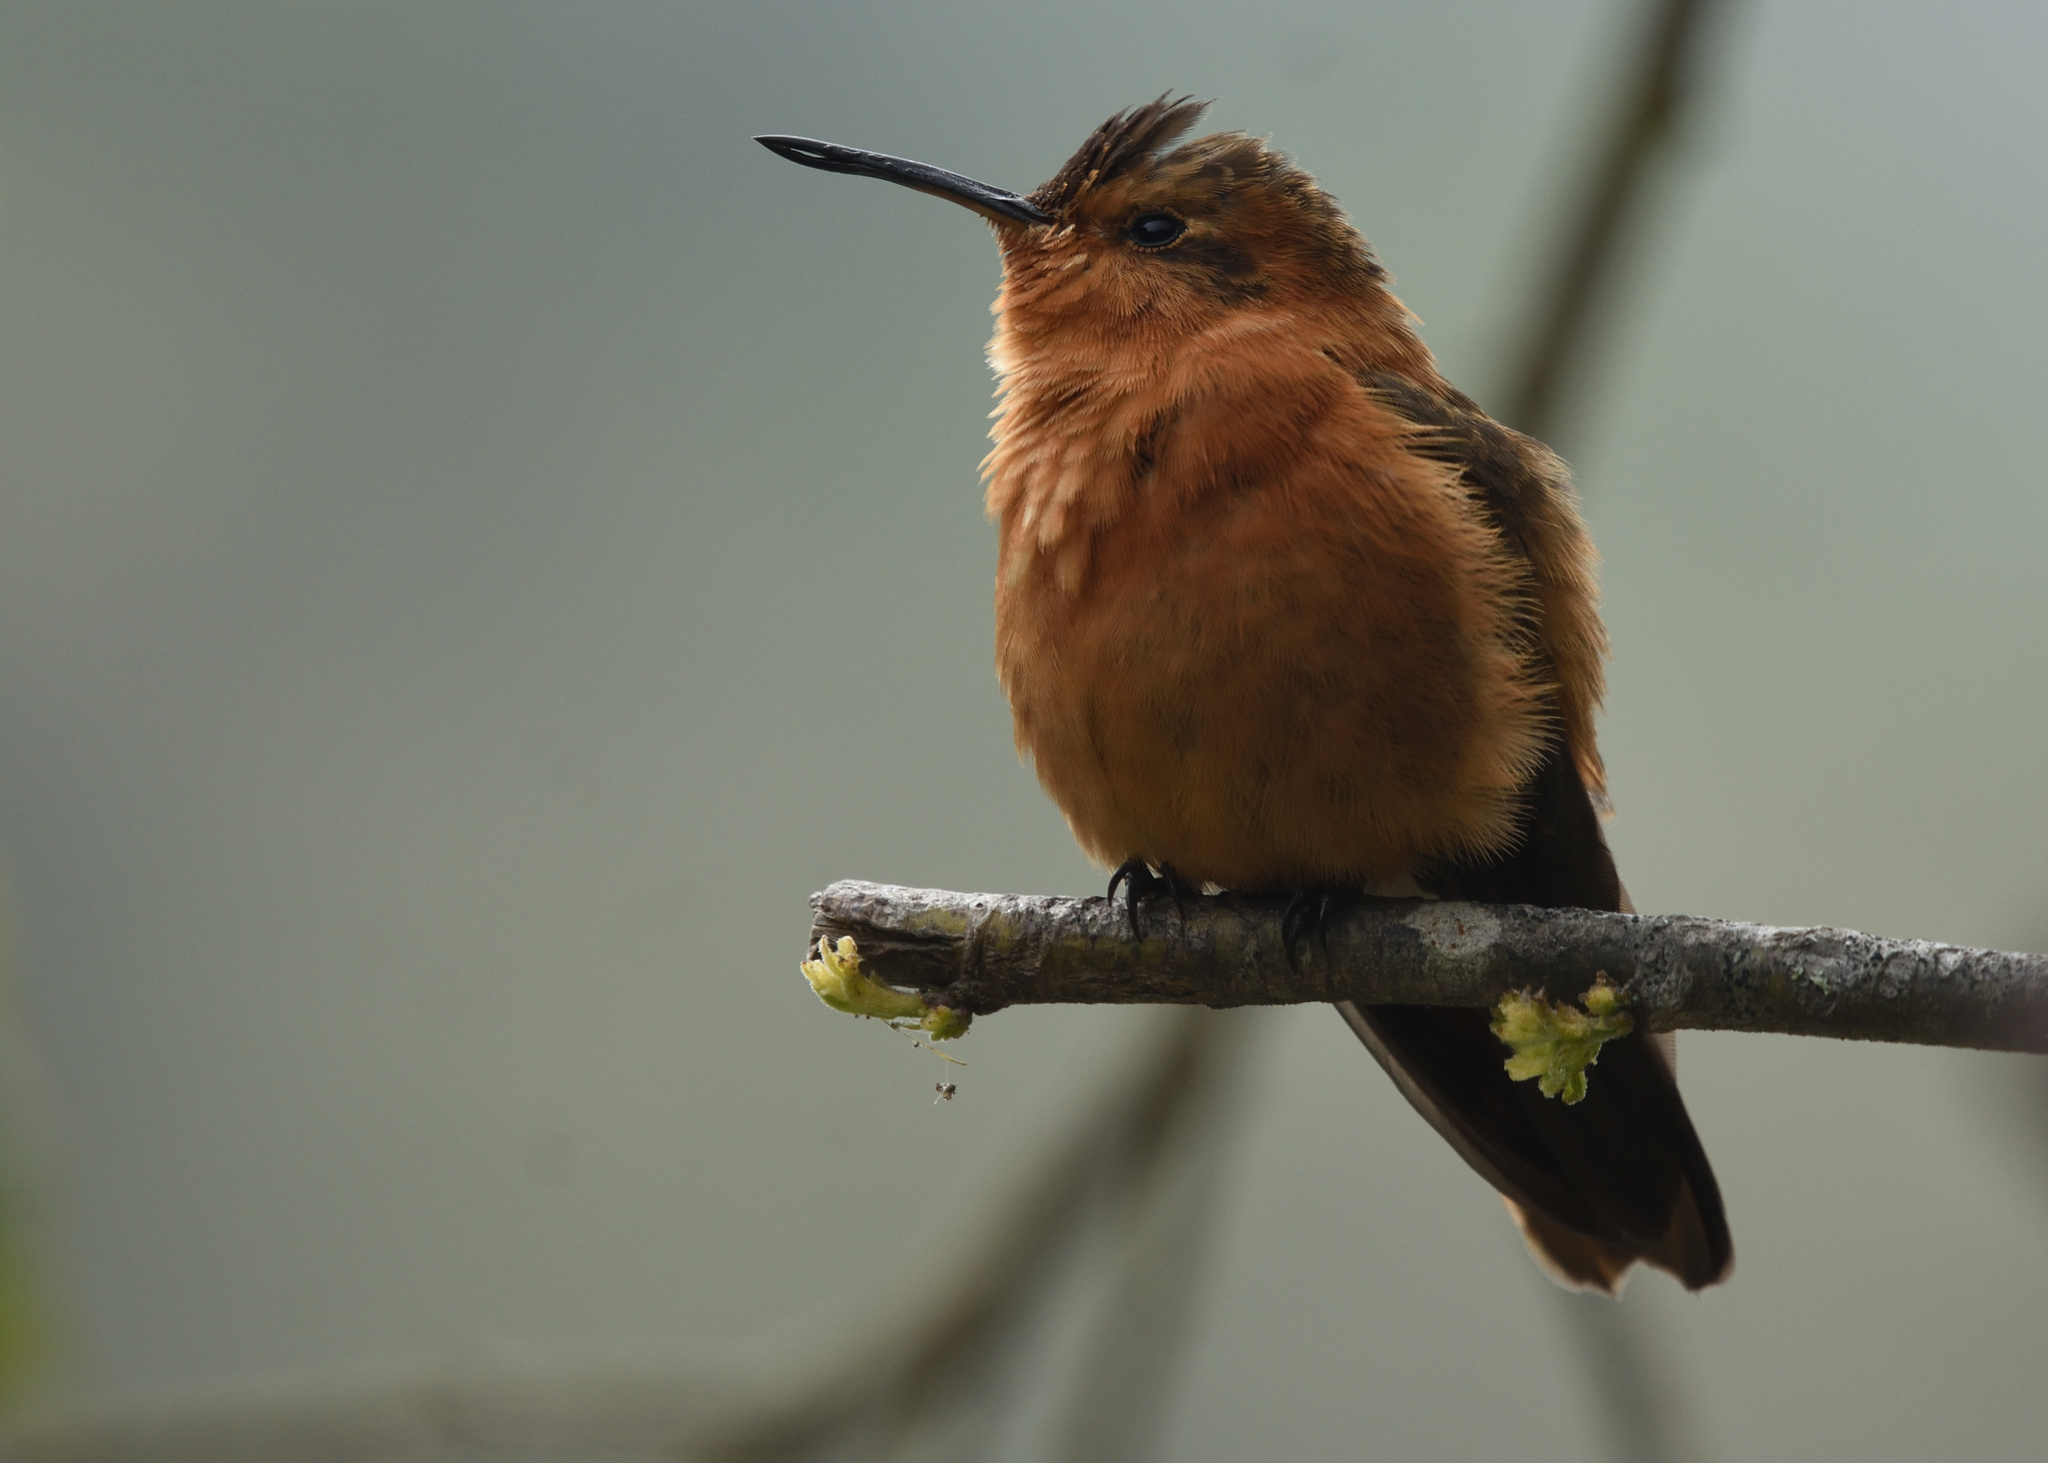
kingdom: Animalia
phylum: Chordata
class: Aves
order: Apodiformes
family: Trochilidae
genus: Aglaeactis
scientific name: Aglaeactis cupripennis
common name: Shining sunbeam
